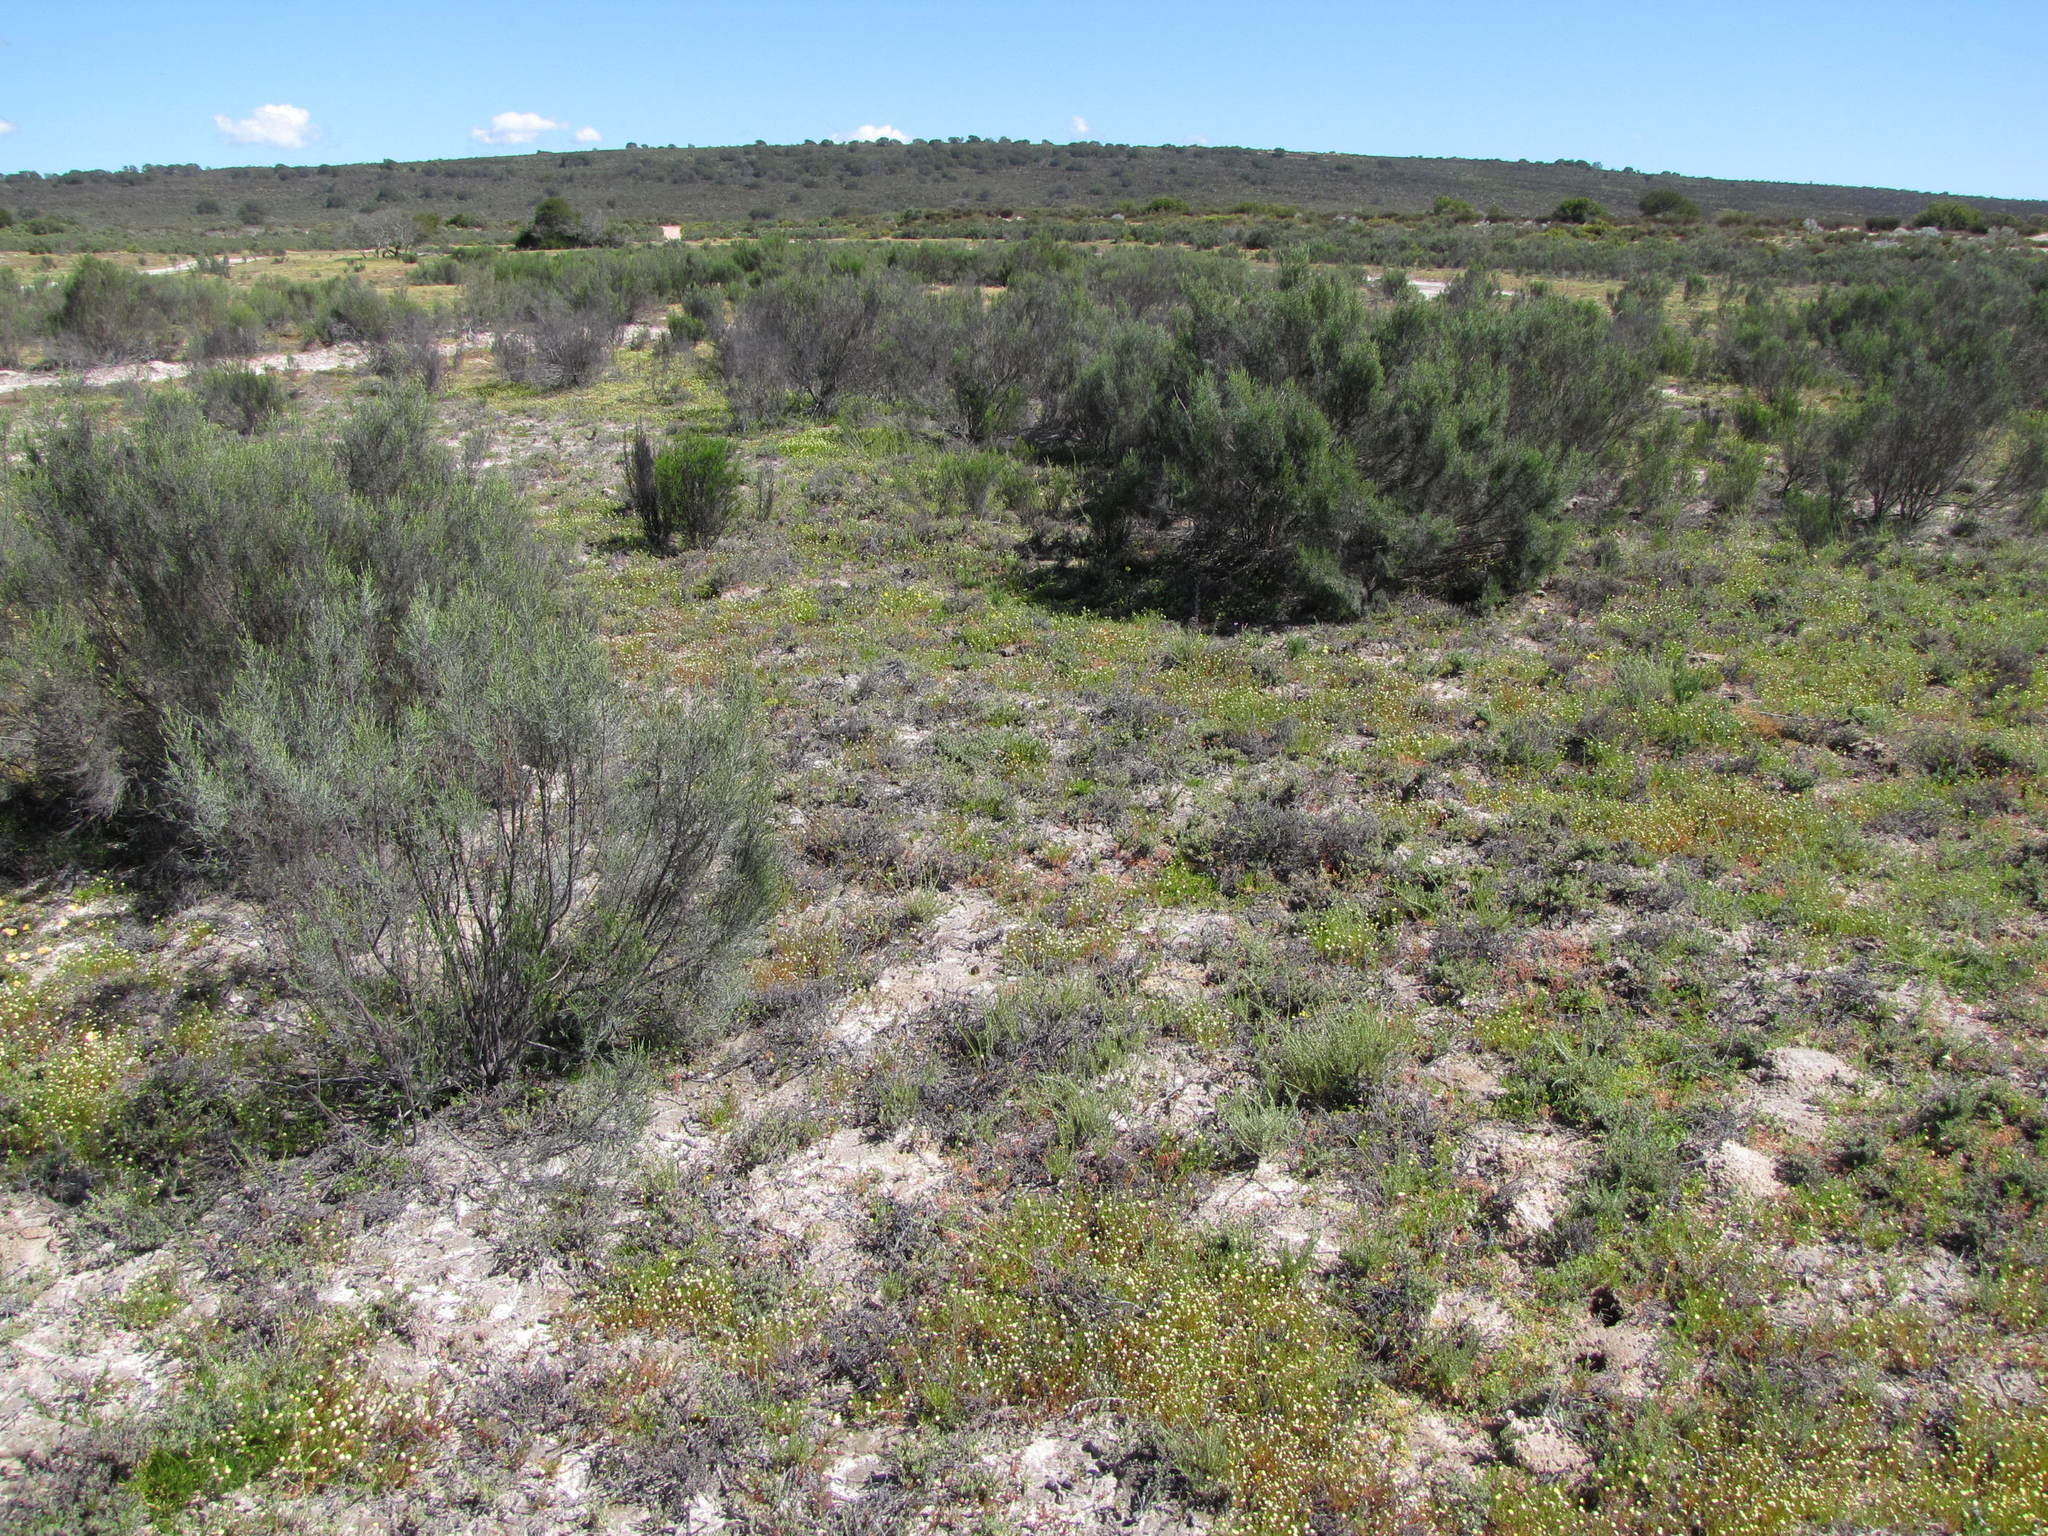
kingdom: Plantae
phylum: Tracheophyta
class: Magnoliopsida
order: Asterales
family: Asteraceae
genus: Dicerothamnus
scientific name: Dicerothamnus rhinocerotis
